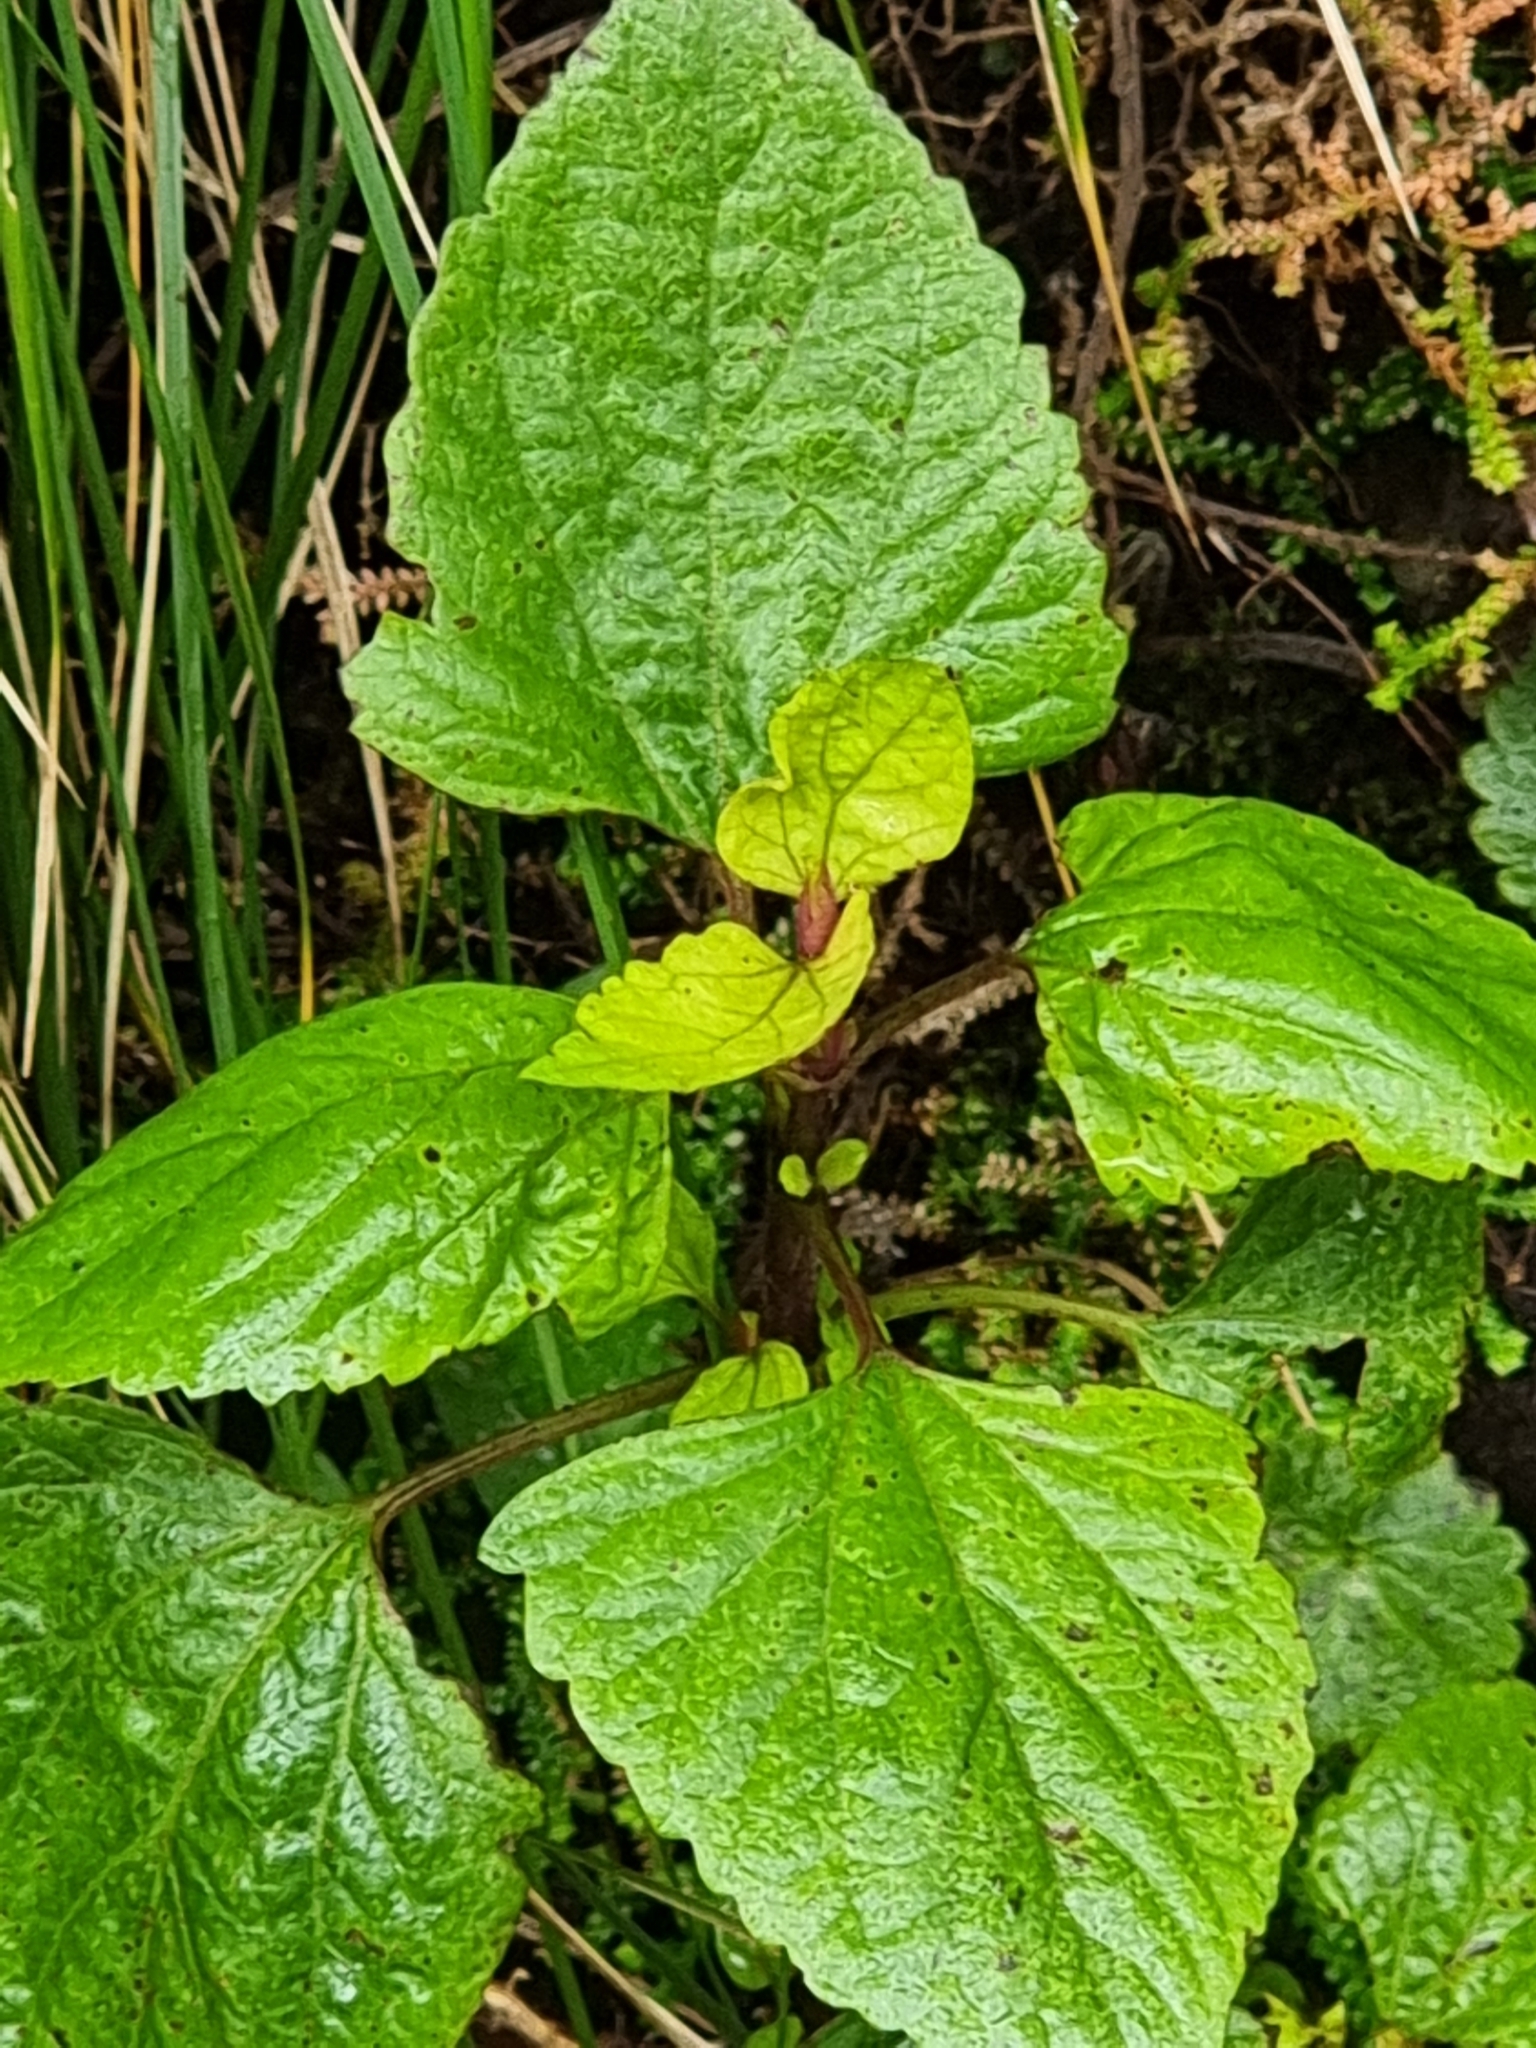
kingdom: Plantae
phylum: Tracheophyta
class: Magnoliopsida
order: Asterales
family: Asteraceae
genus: Ageratina
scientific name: Ageratina adenophora
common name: Sticky snakeroot
